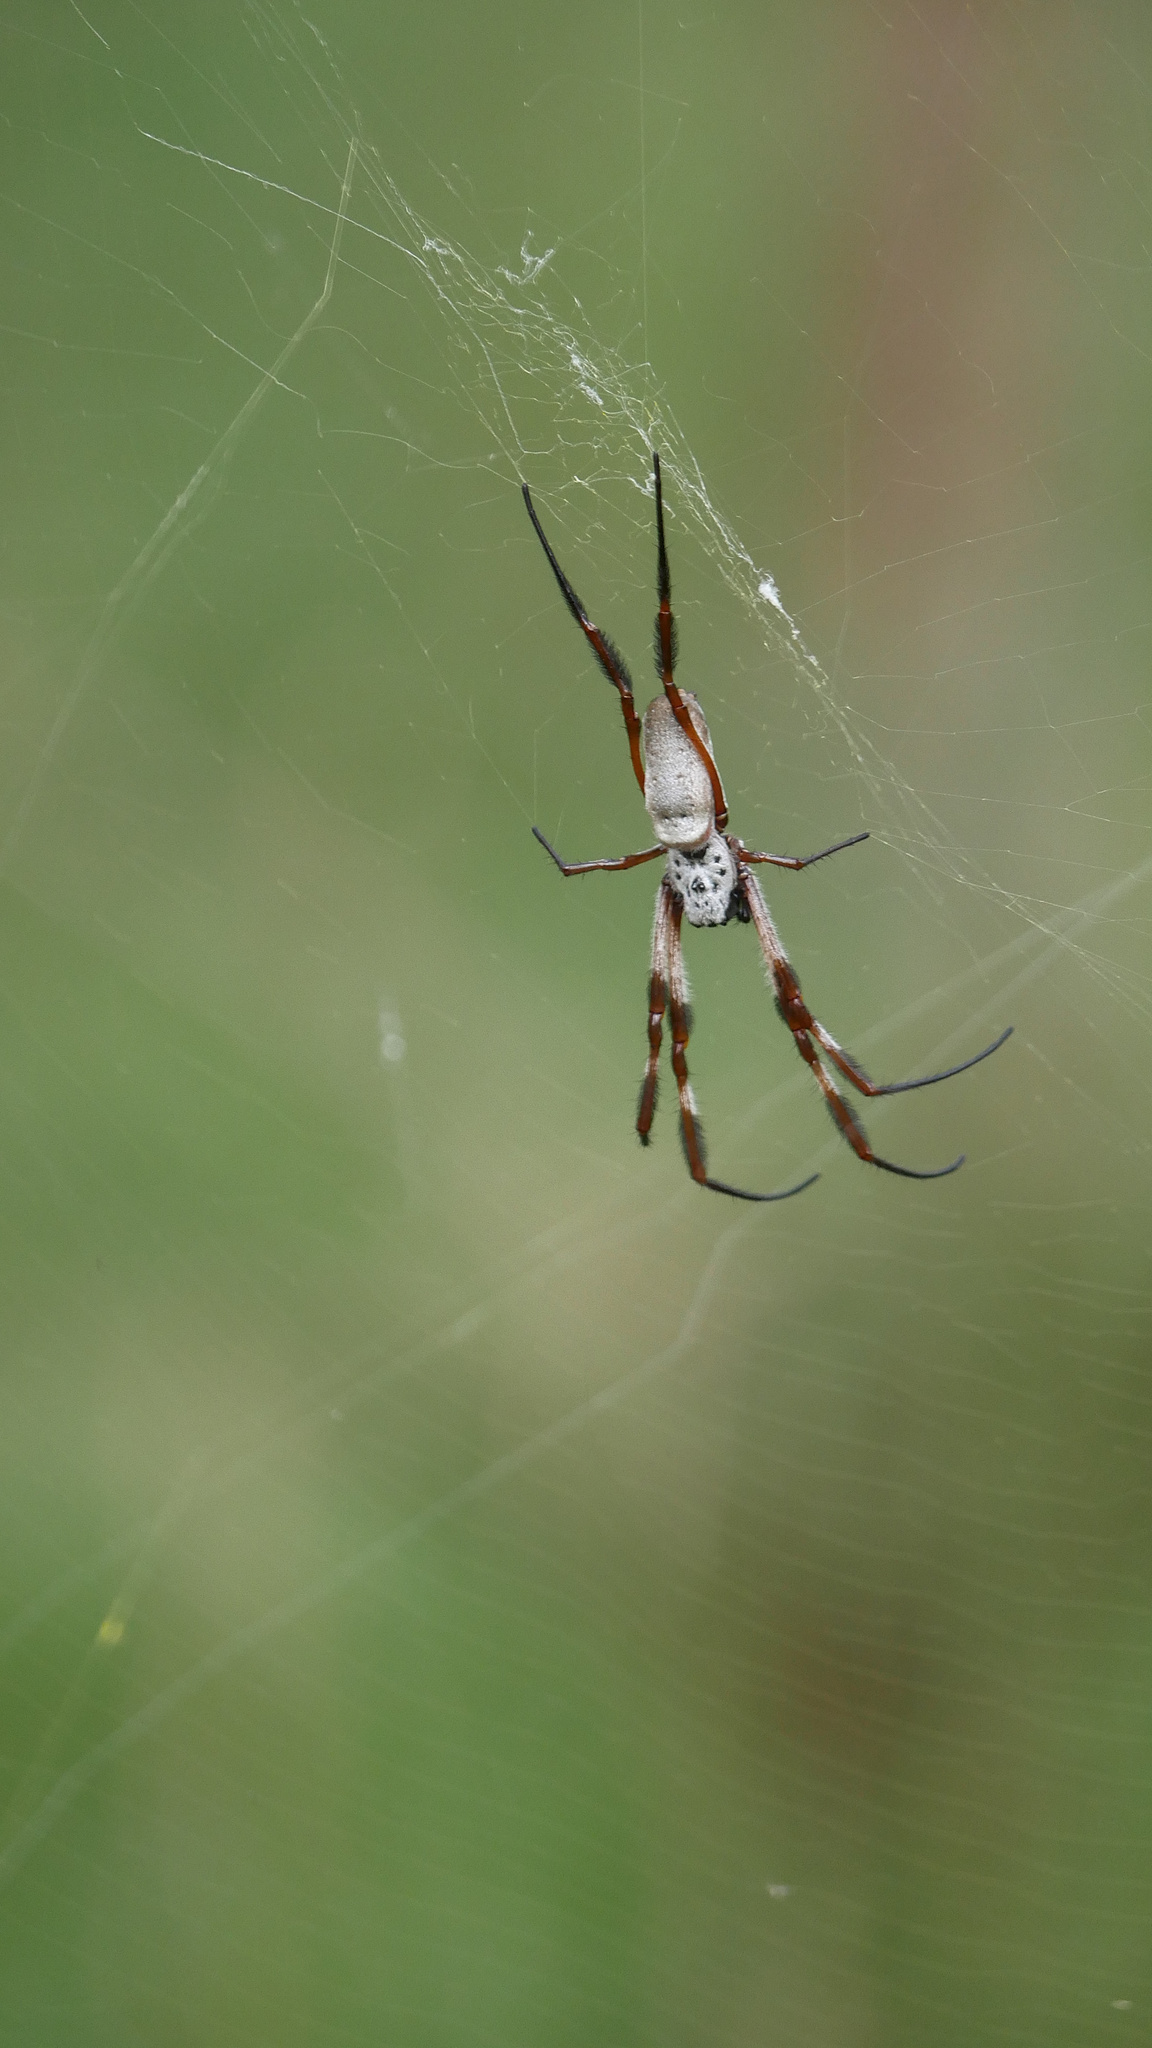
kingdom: Animalia
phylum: Arthropoda
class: Arachnida
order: Araneae
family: Araneidae
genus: Trichonephila
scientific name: Trichonephila edulis
